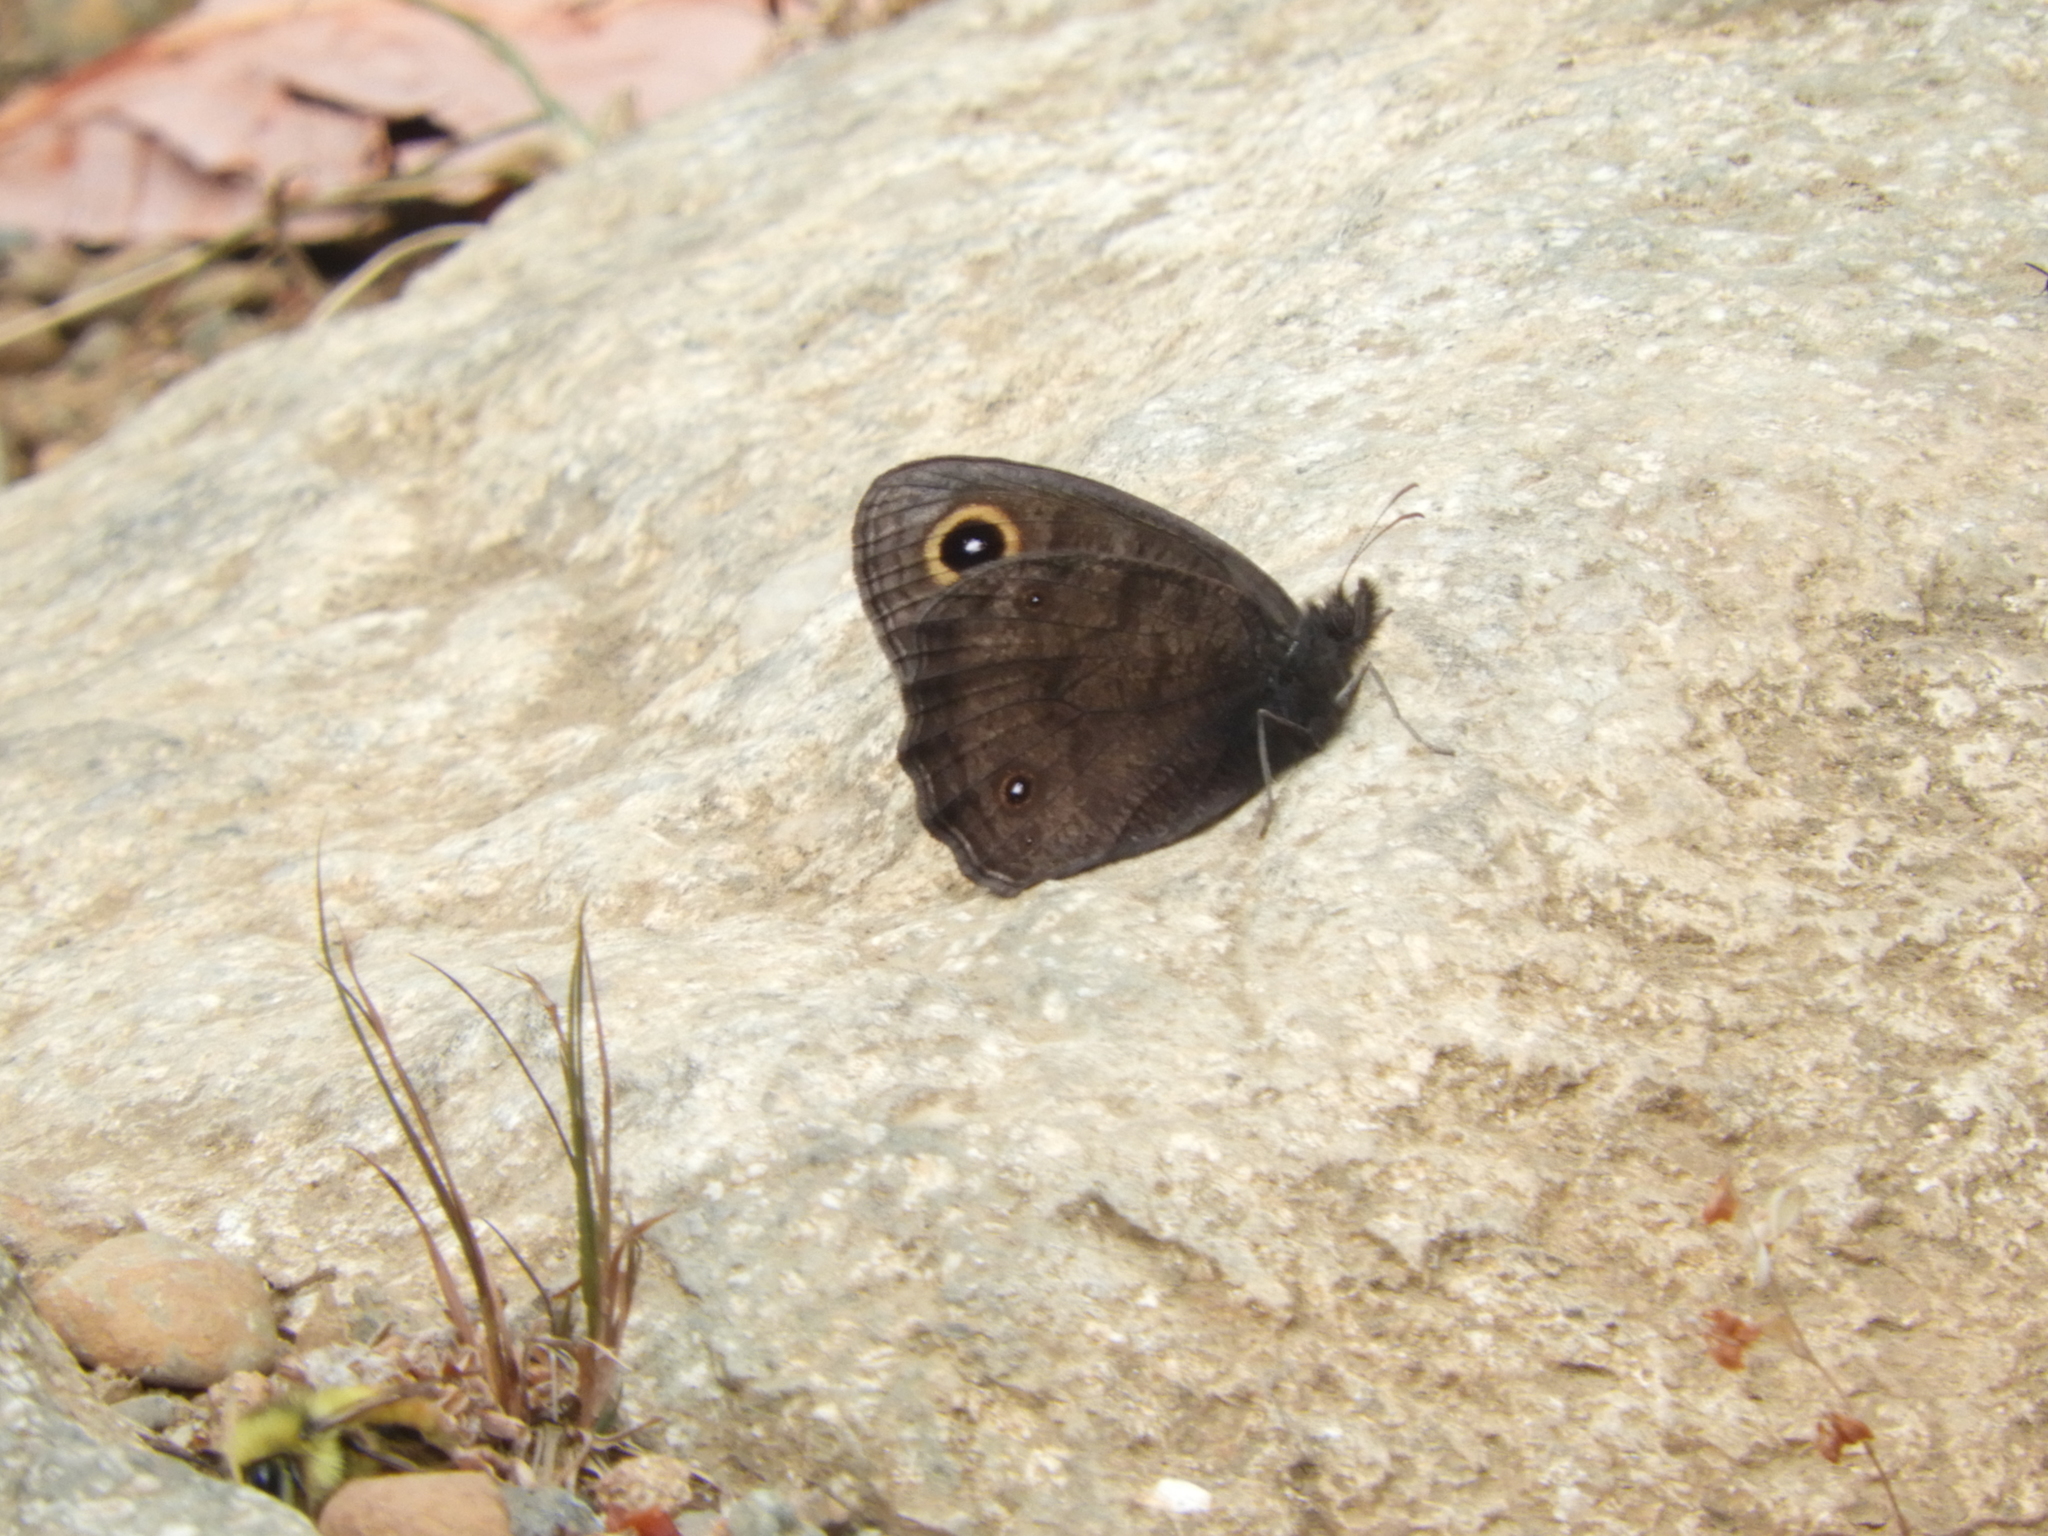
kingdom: Animalia
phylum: Arthropoda
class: Insecta
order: Lepidoptera
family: Nymphalidae
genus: Cercyonis
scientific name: Cercyonis pegala
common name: Common wood-nymph
